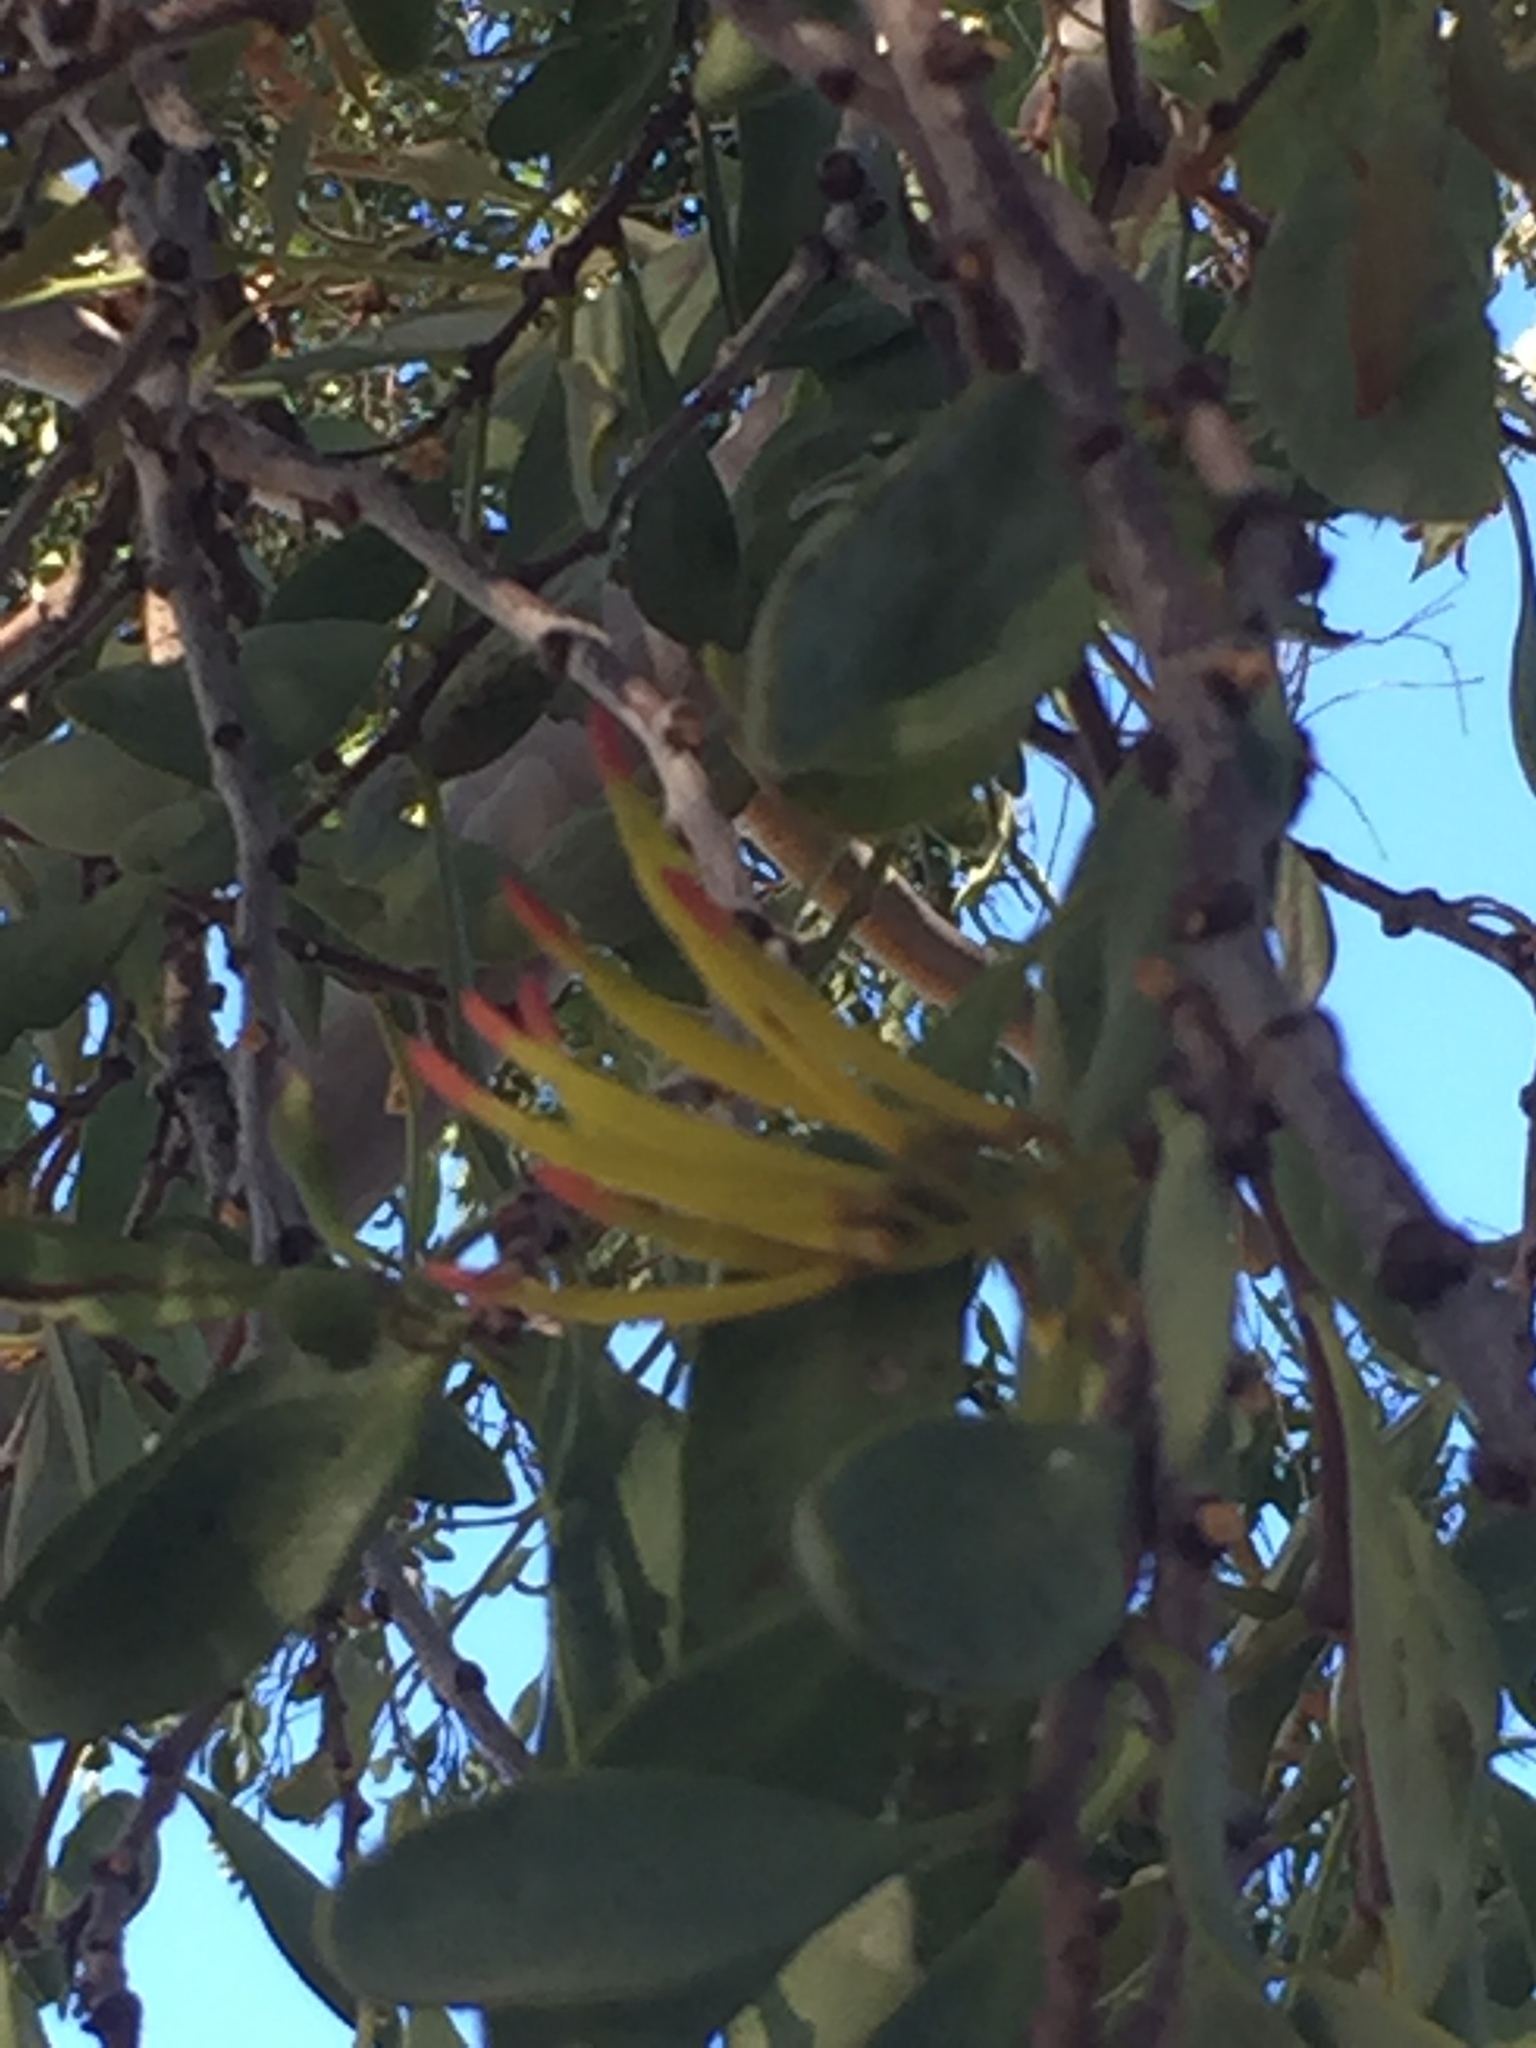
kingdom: Plantae
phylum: Tracheophyta
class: Magnoliopsida
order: Santalales
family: Loranthaceae
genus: Dendrophthoe
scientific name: Dendrophthoe vitellina
